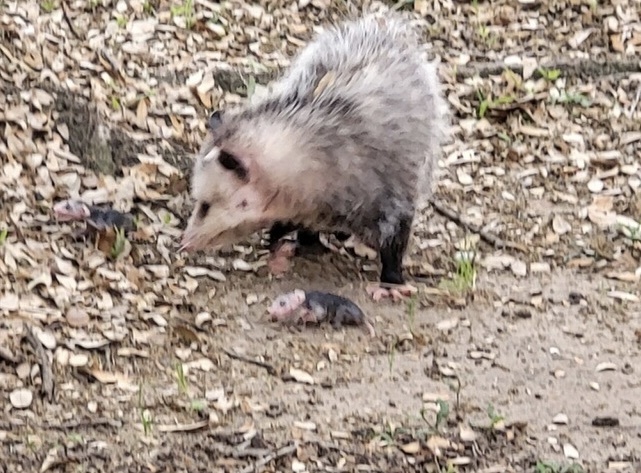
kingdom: Animalia
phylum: Chordata
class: Mammalia
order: Didelphimorphia
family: Didelphidae
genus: Didelphis
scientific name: Didelphis virginiana
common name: Virginia opossum
